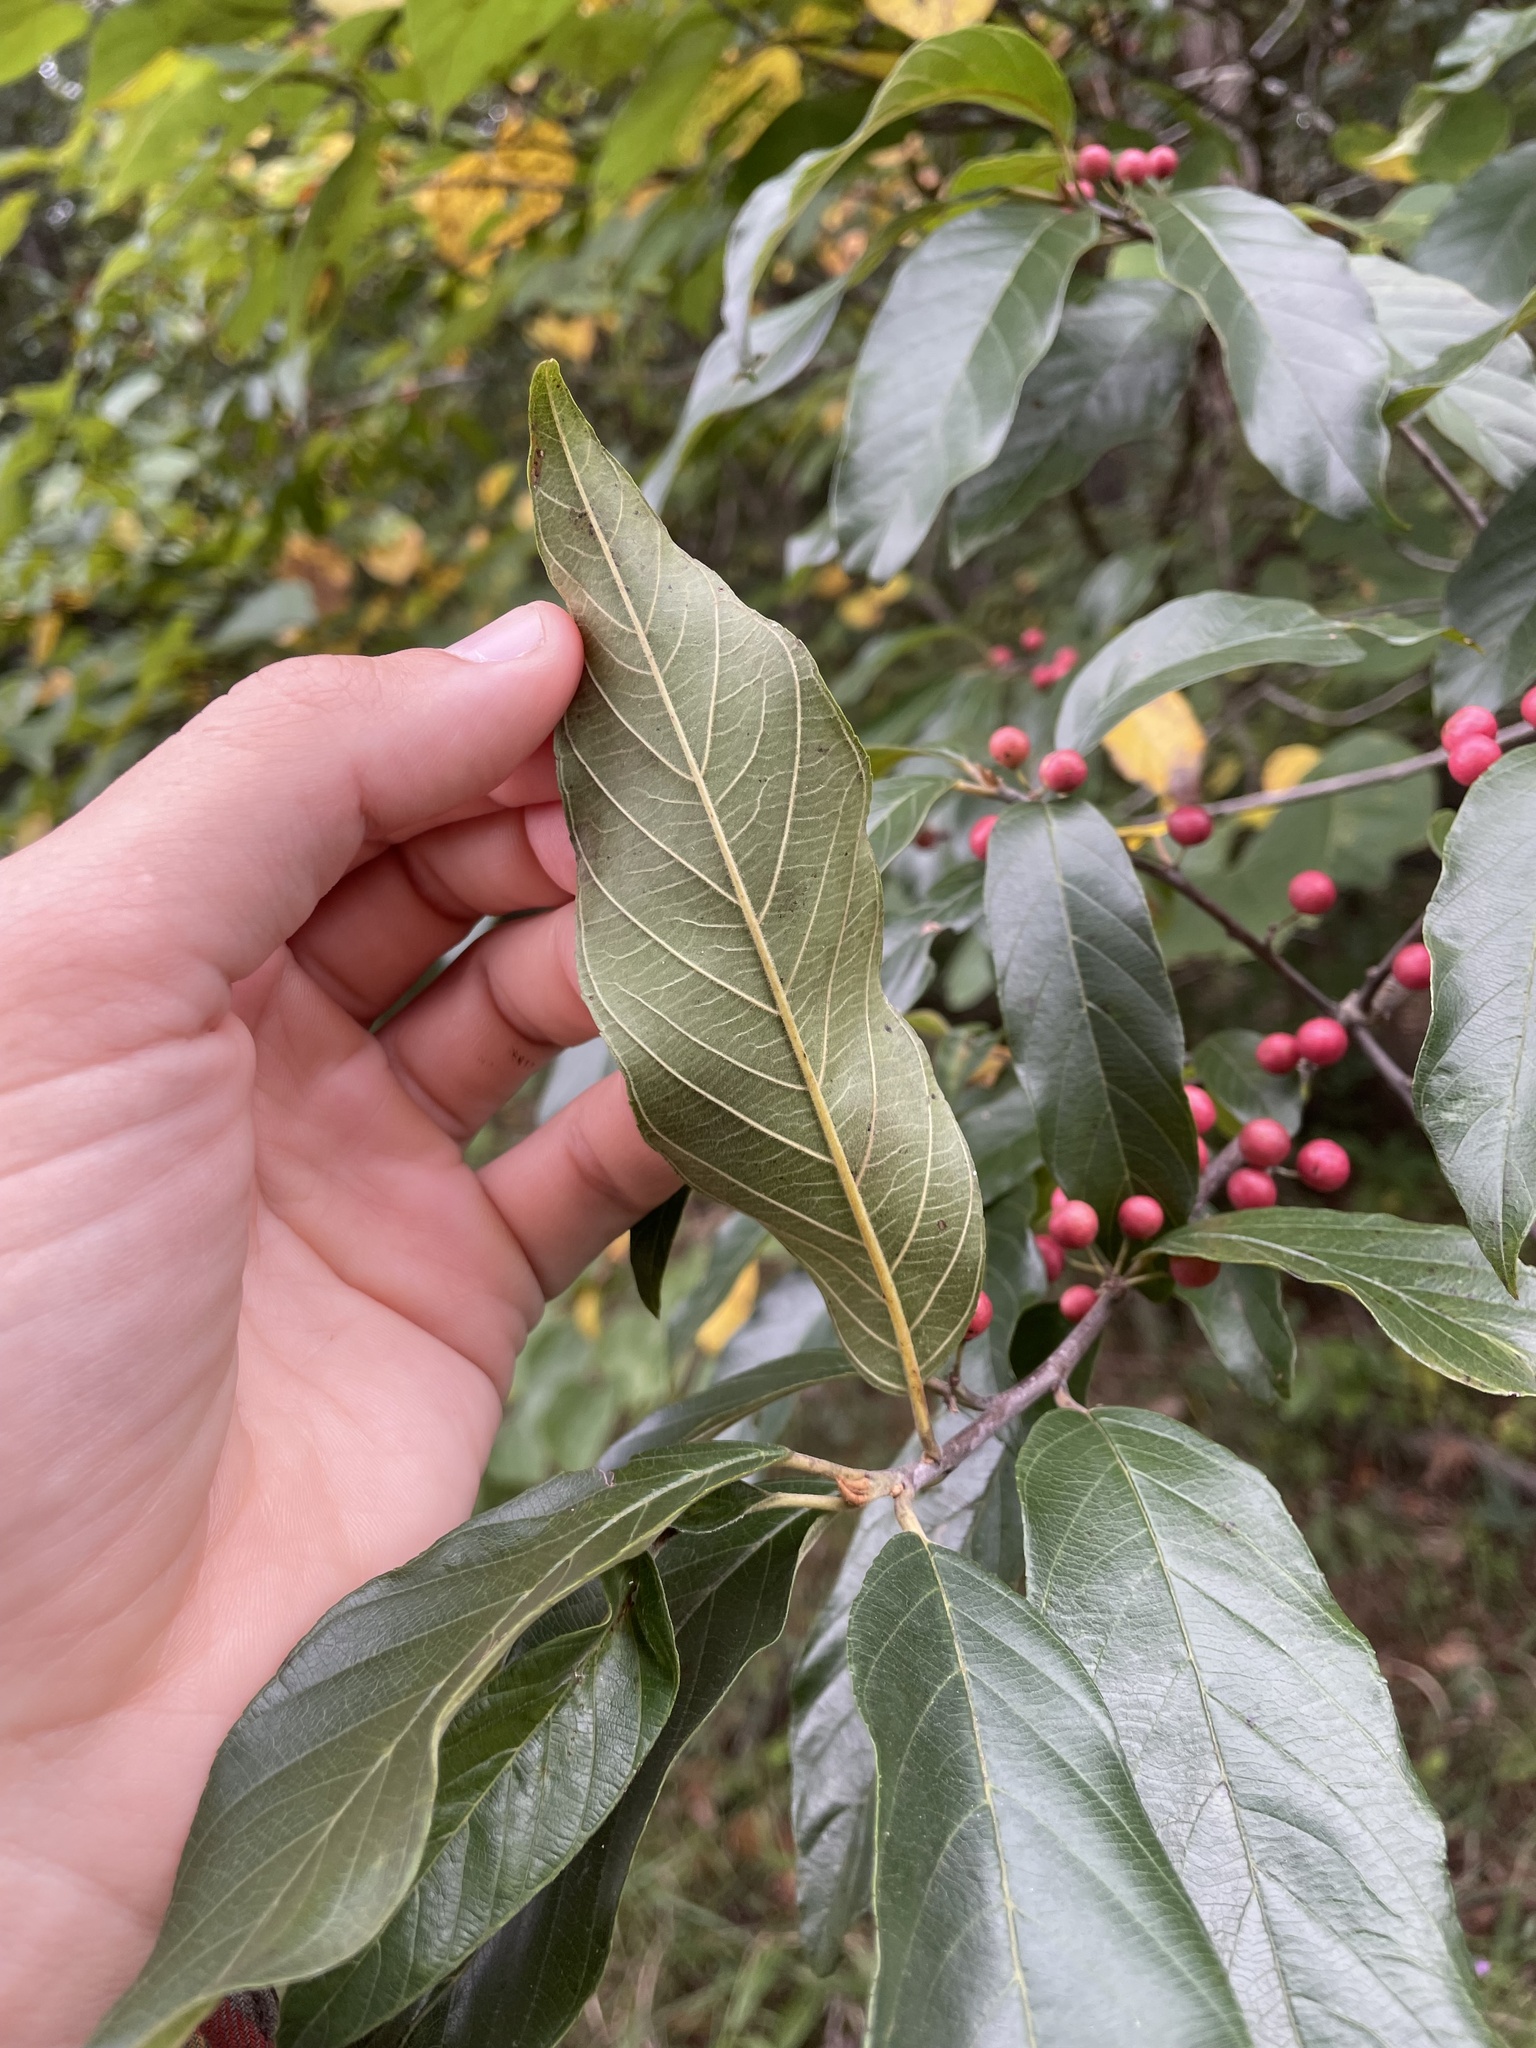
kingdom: Plantae
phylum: Tracheophyta
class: Magnoliopsida
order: Rosales
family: Rhamnaceae
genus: Frangula
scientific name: Frangula caroliniana
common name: Carolina buckthorn
